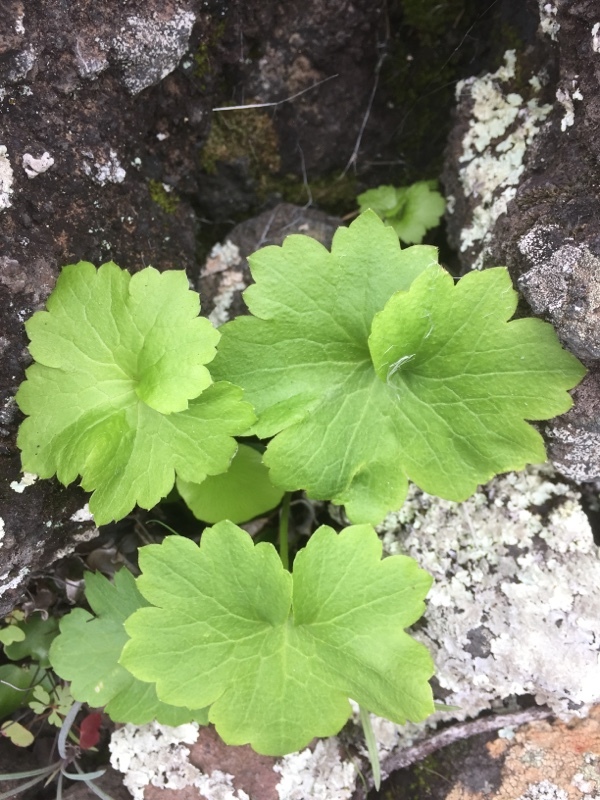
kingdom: Plantae
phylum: Tracheophyta
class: Magnoliopsida
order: Ranunculales
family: Ranunculaceae
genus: Ranunculus
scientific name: Ranunculus cortusifolius
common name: Azores buttercup
